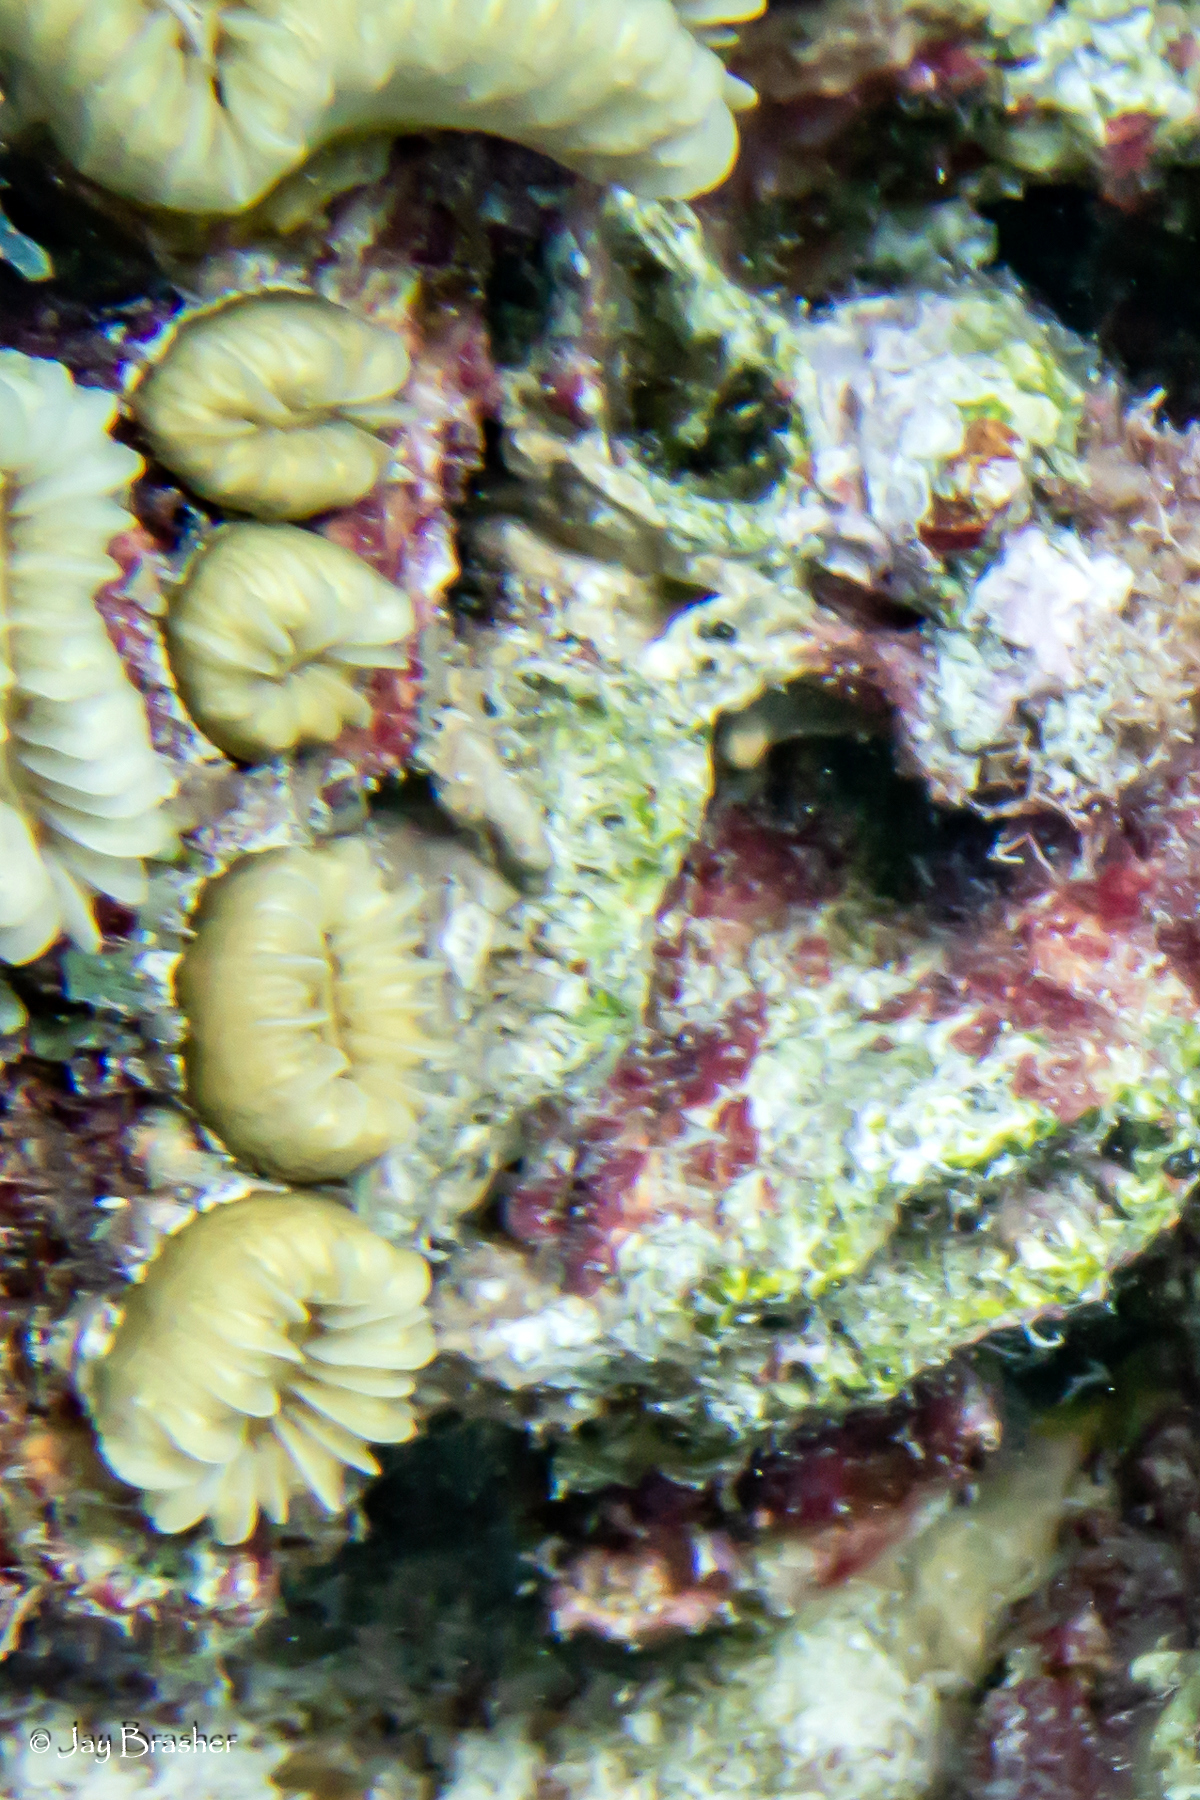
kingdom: Animalia
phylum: Cnidaria
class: Anthozoa
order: Scleractinia
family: Meandrinidae
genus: Eusmilia
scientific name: Eusmilia fastigiata
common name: Smooth flower coral
